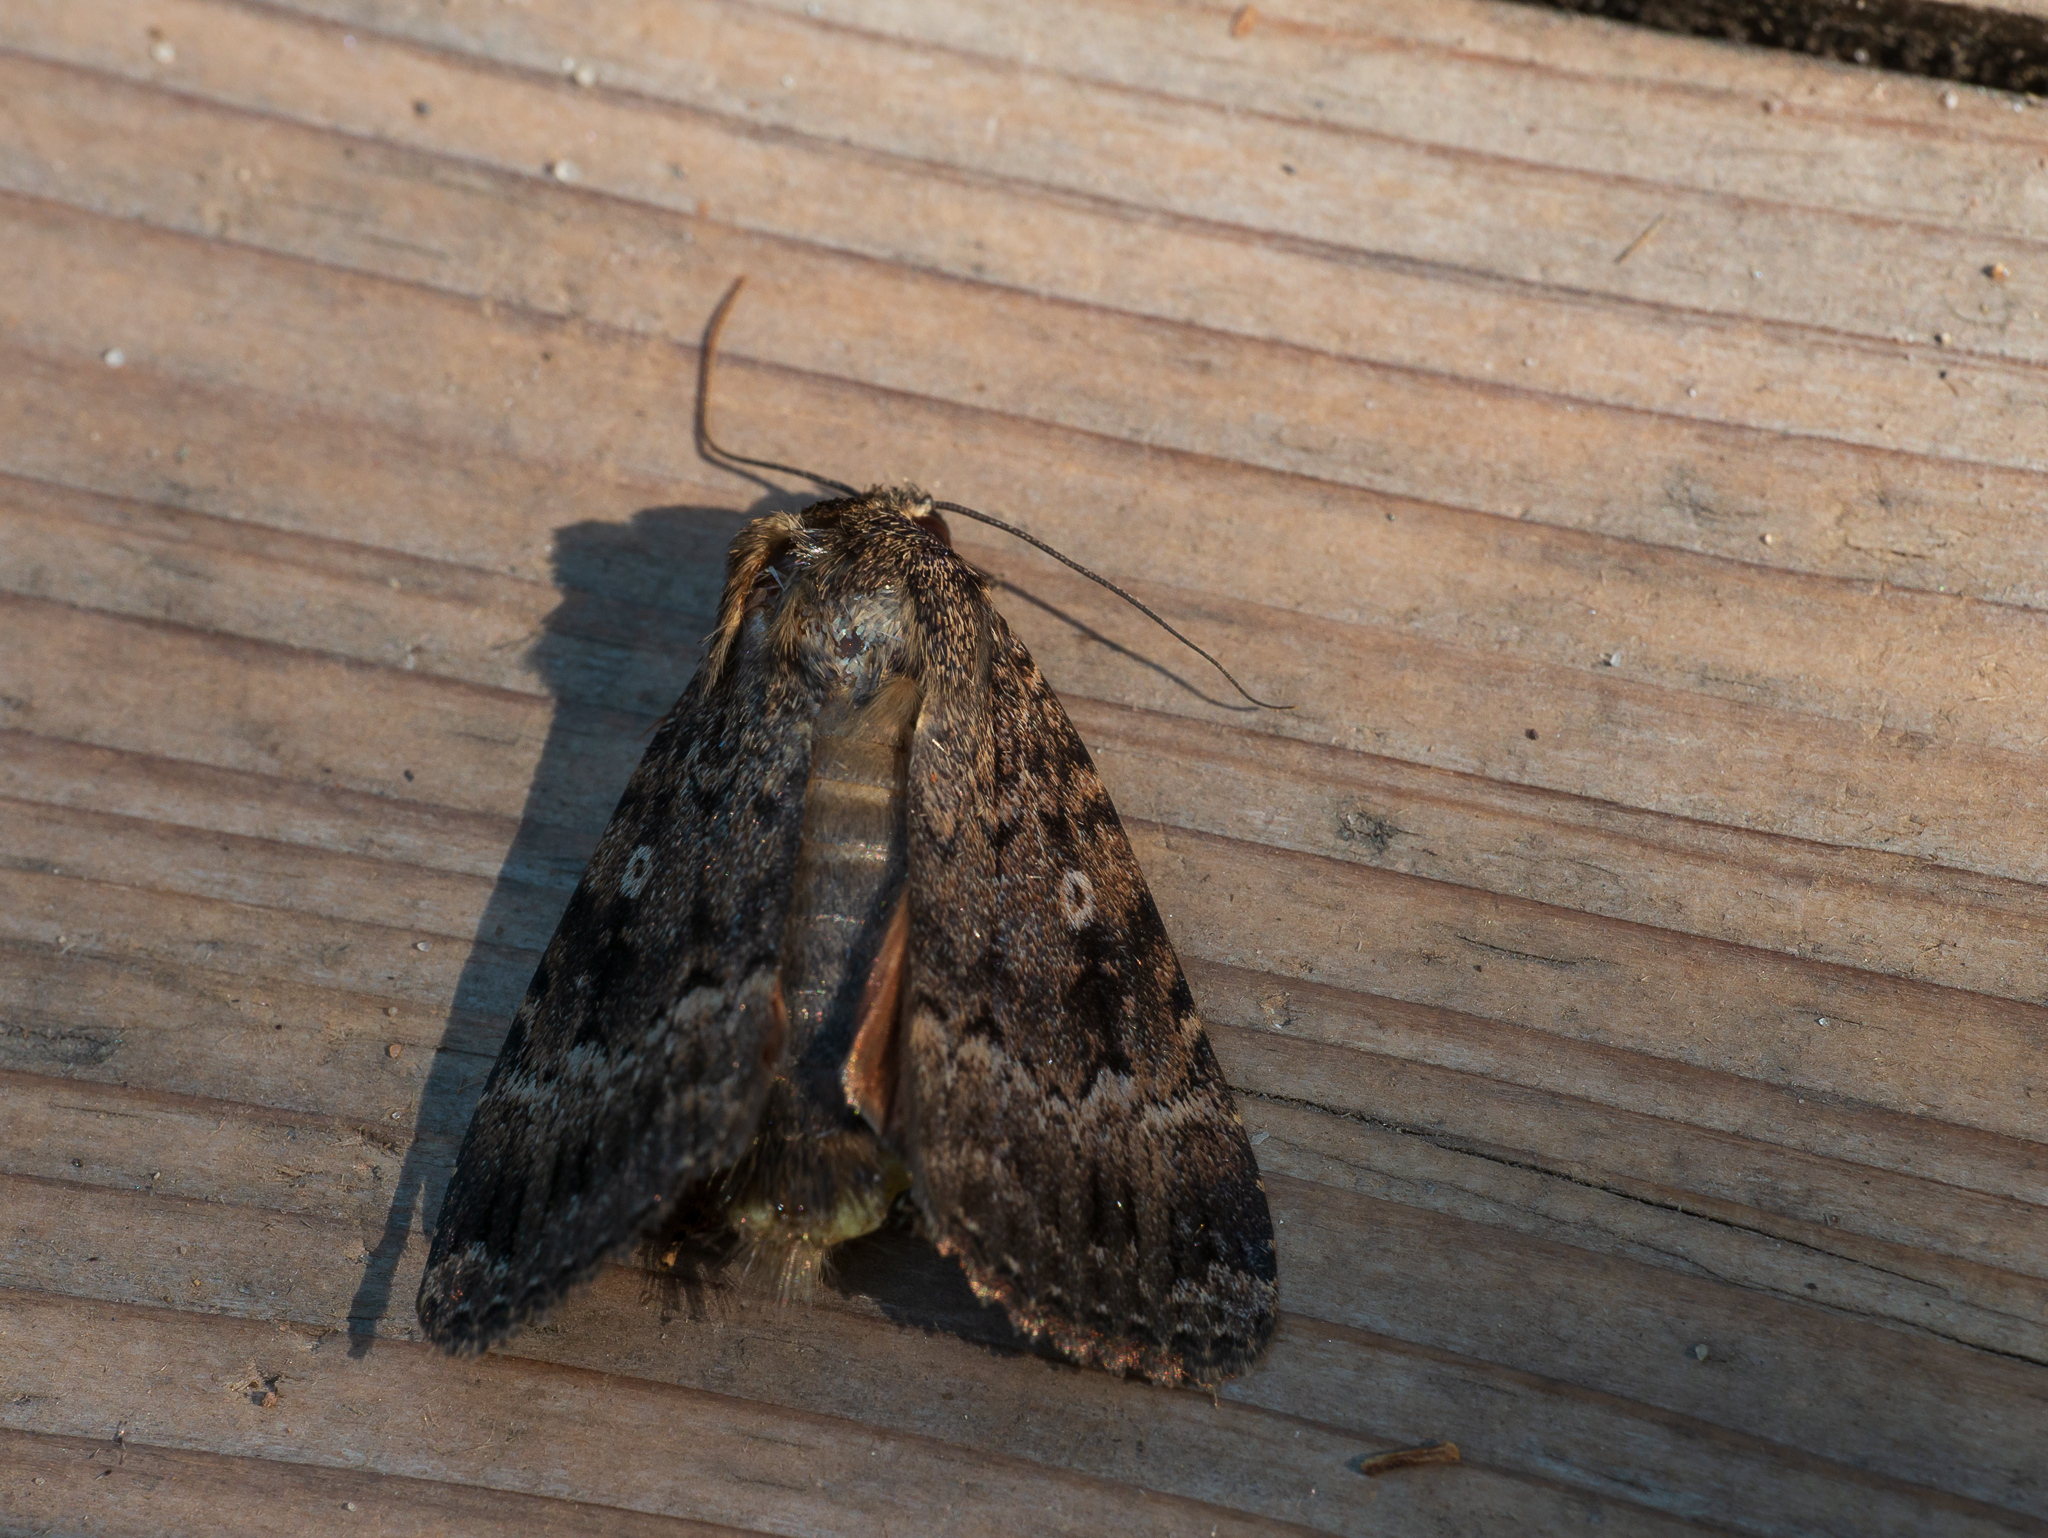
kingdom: Animalia
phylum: Arthropoda
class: Insecta
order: Lepidoptera
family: Noctuidae
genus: Amphipyra
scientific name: Amphipyra berbera
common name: Svensson's copper underwing
